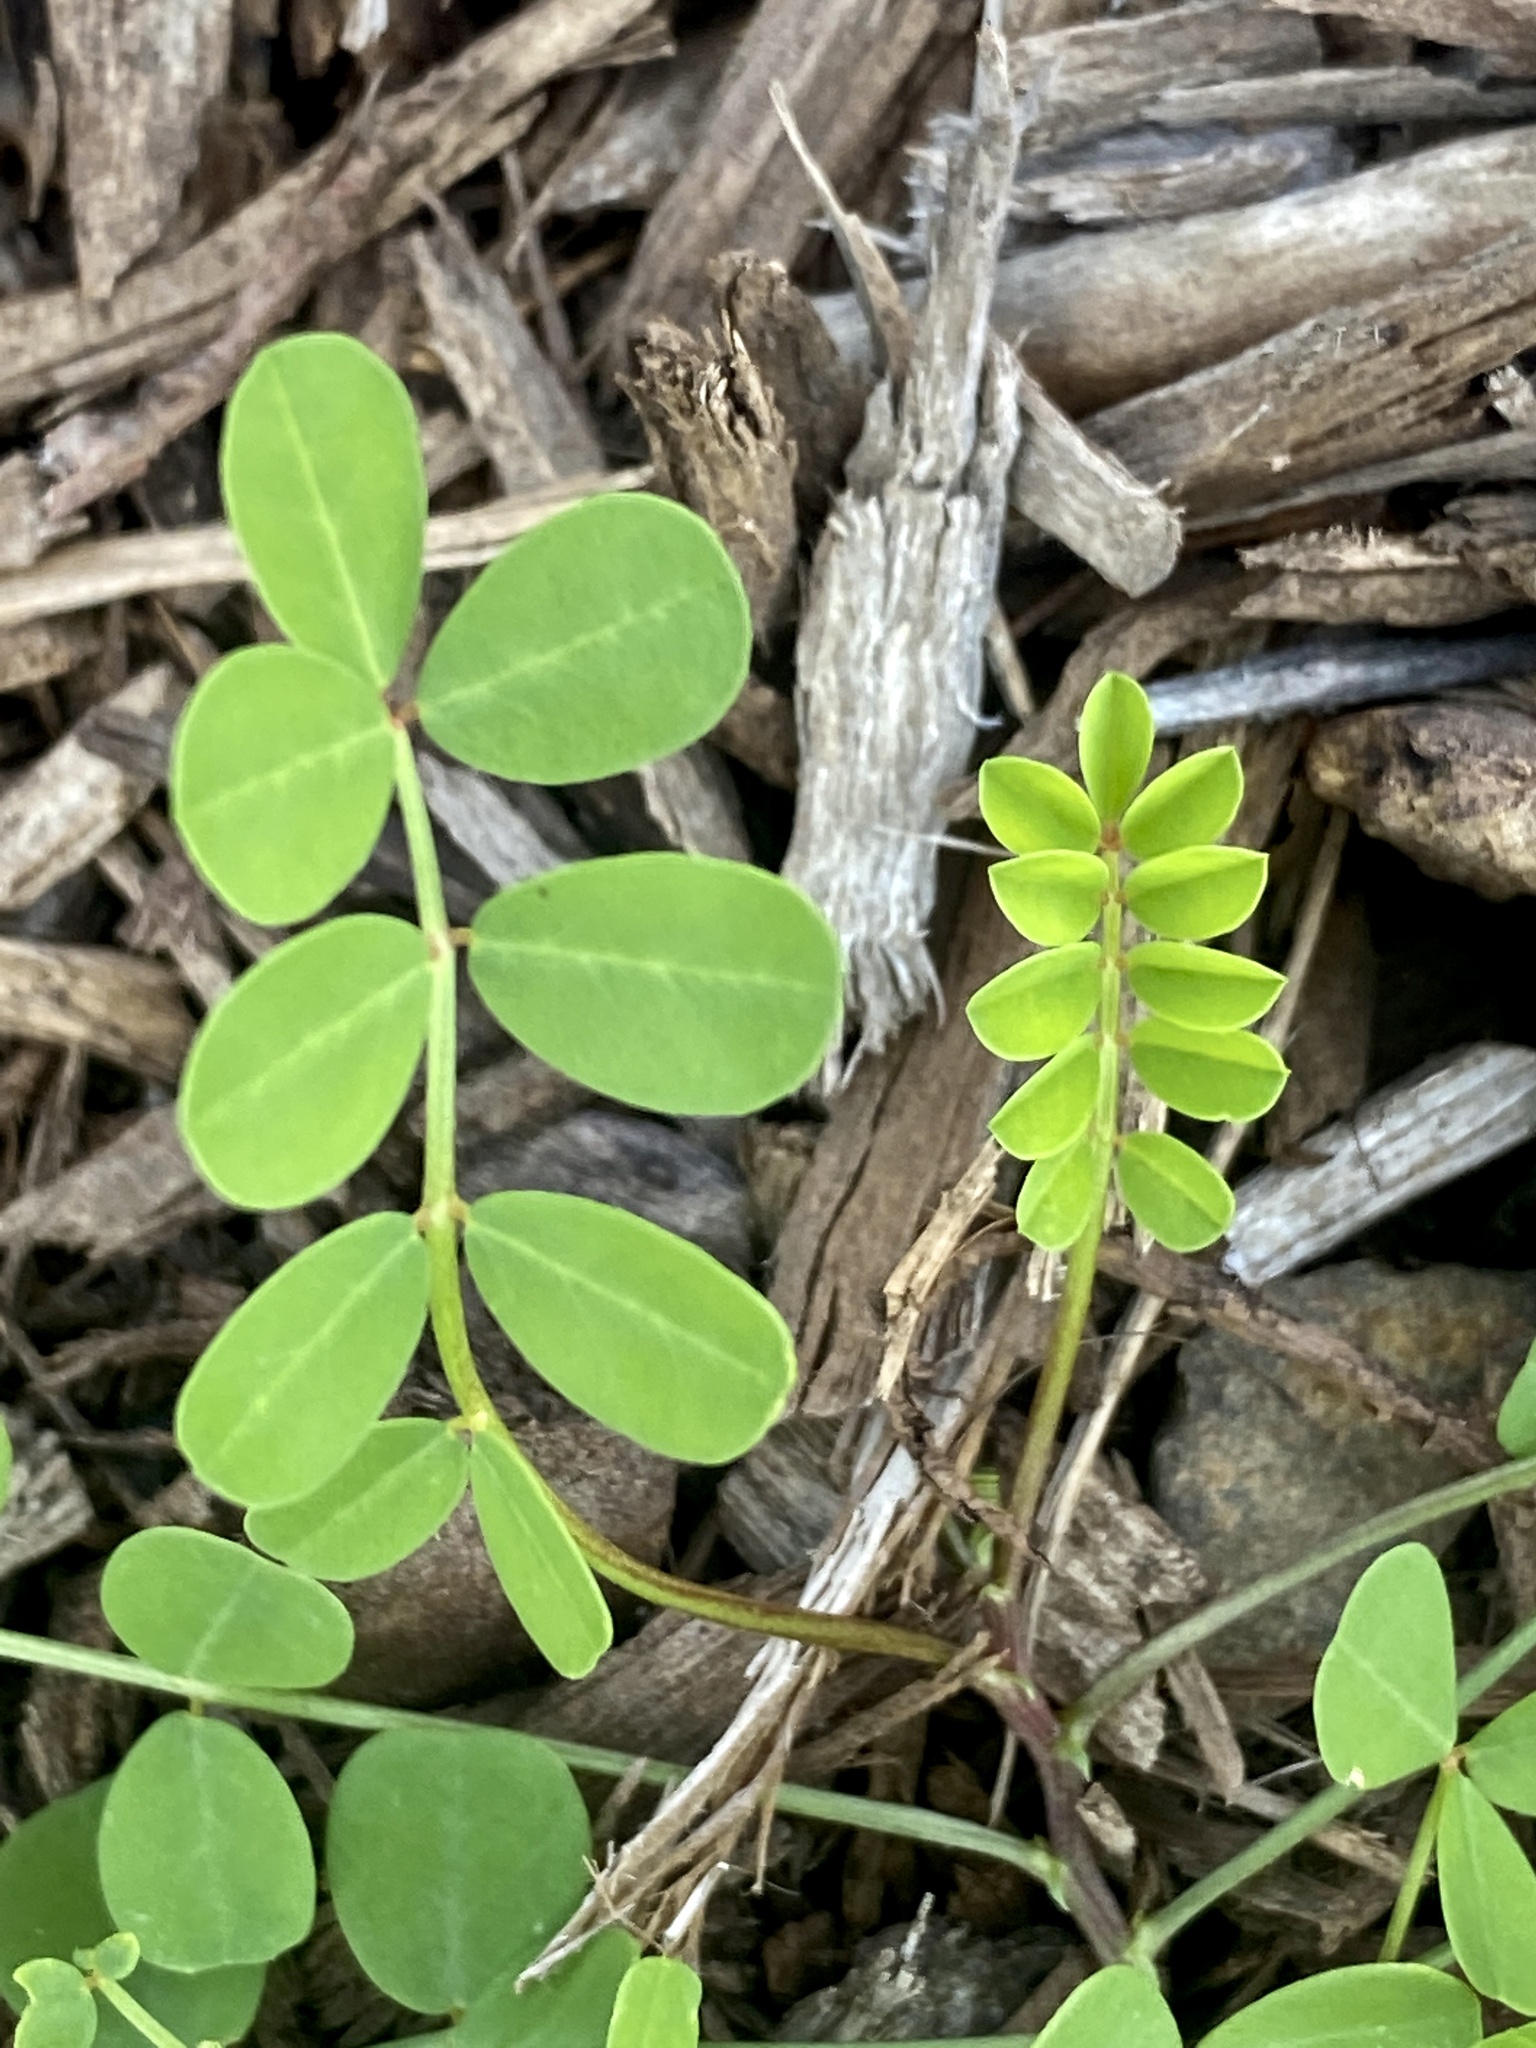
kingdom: Plantae
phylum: Tracheophyta
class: Magnoliopsida
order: Fabales
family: Fabaceae
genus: Coronilla
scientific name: Coronilla varia
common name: Crownvetch
